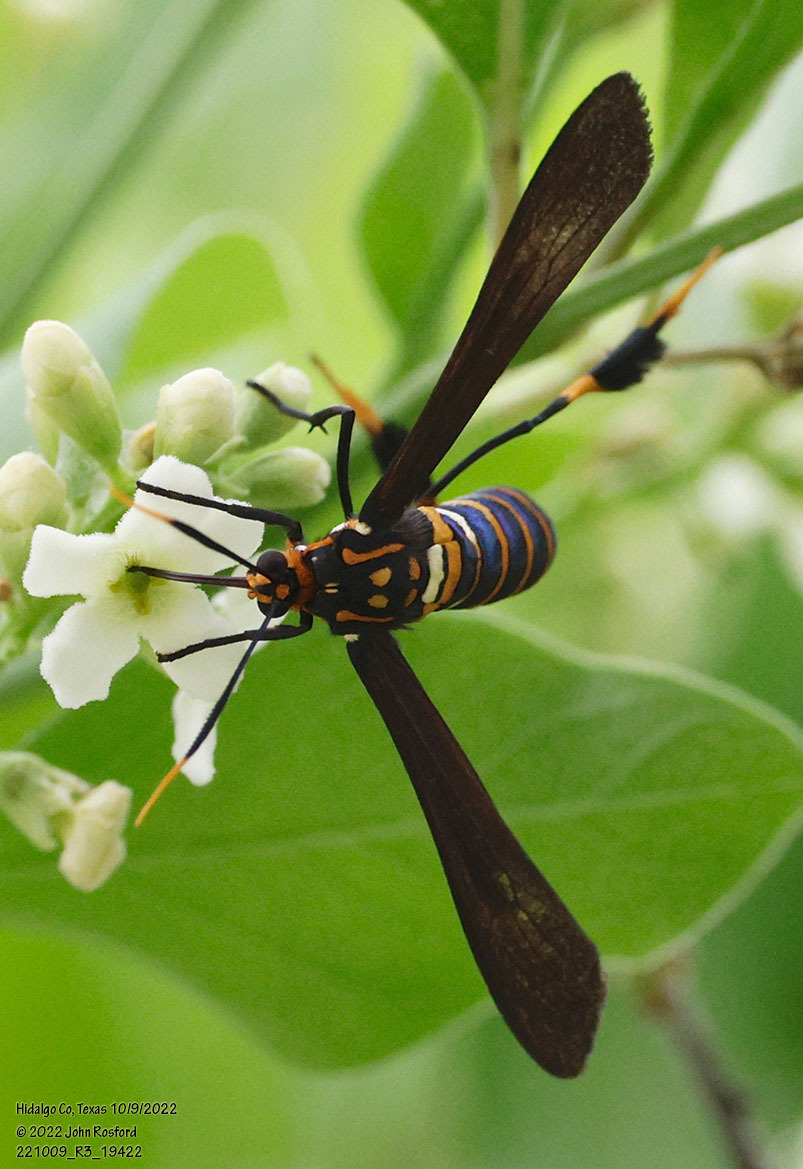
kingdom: Animalia
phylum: Arthropoda
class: Insecta
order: Lepidoptera
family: Erebidae
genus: Horama
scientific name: Horama panthalon
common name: Texas wasp moth
